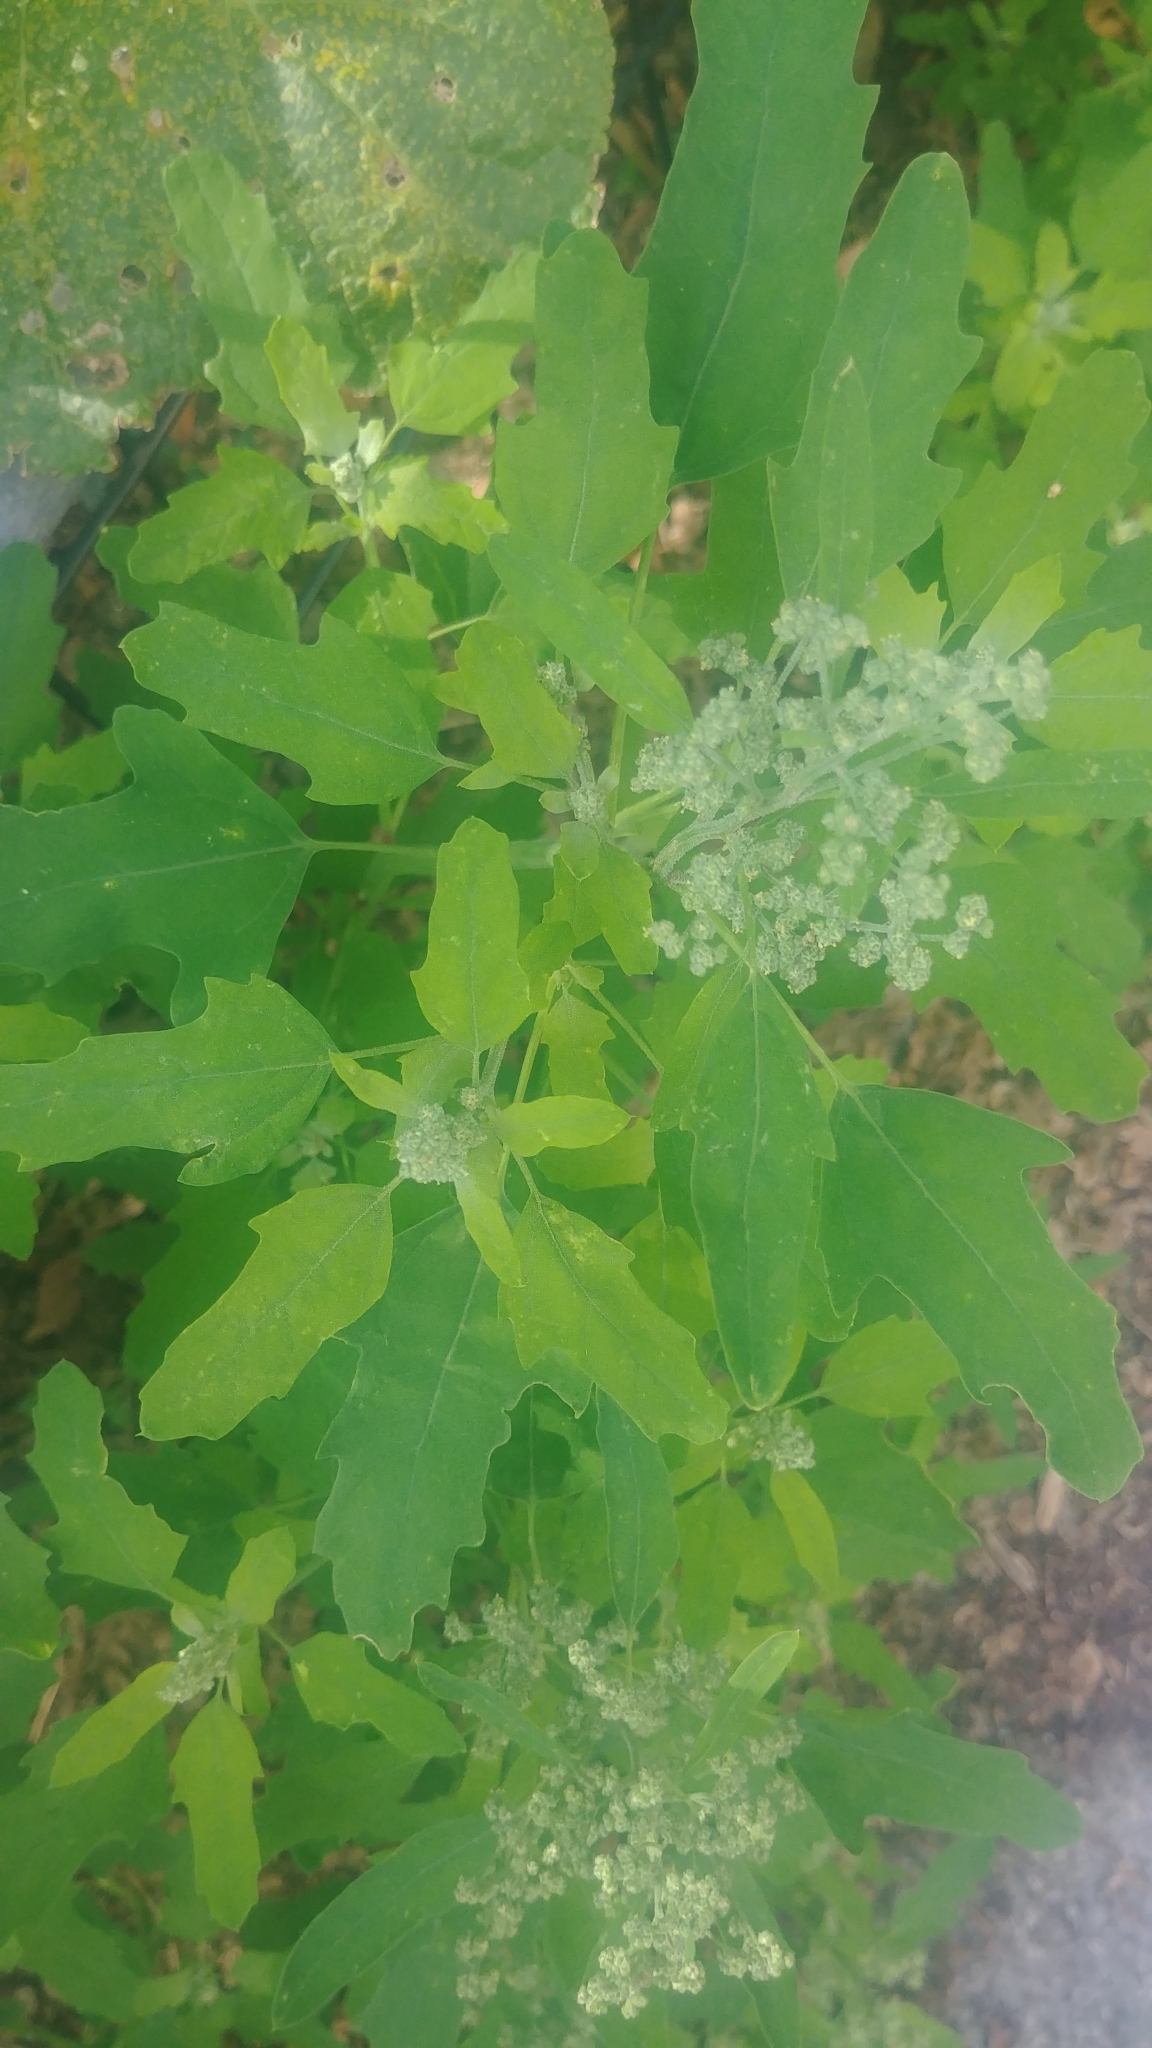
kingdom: Plantae
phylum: Tracheophyta
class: Magnoliopsida
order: Caryophyllales
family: Amaranthaceae
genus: Chenopodium
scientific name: Chenopodium album
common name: Fat-hen
